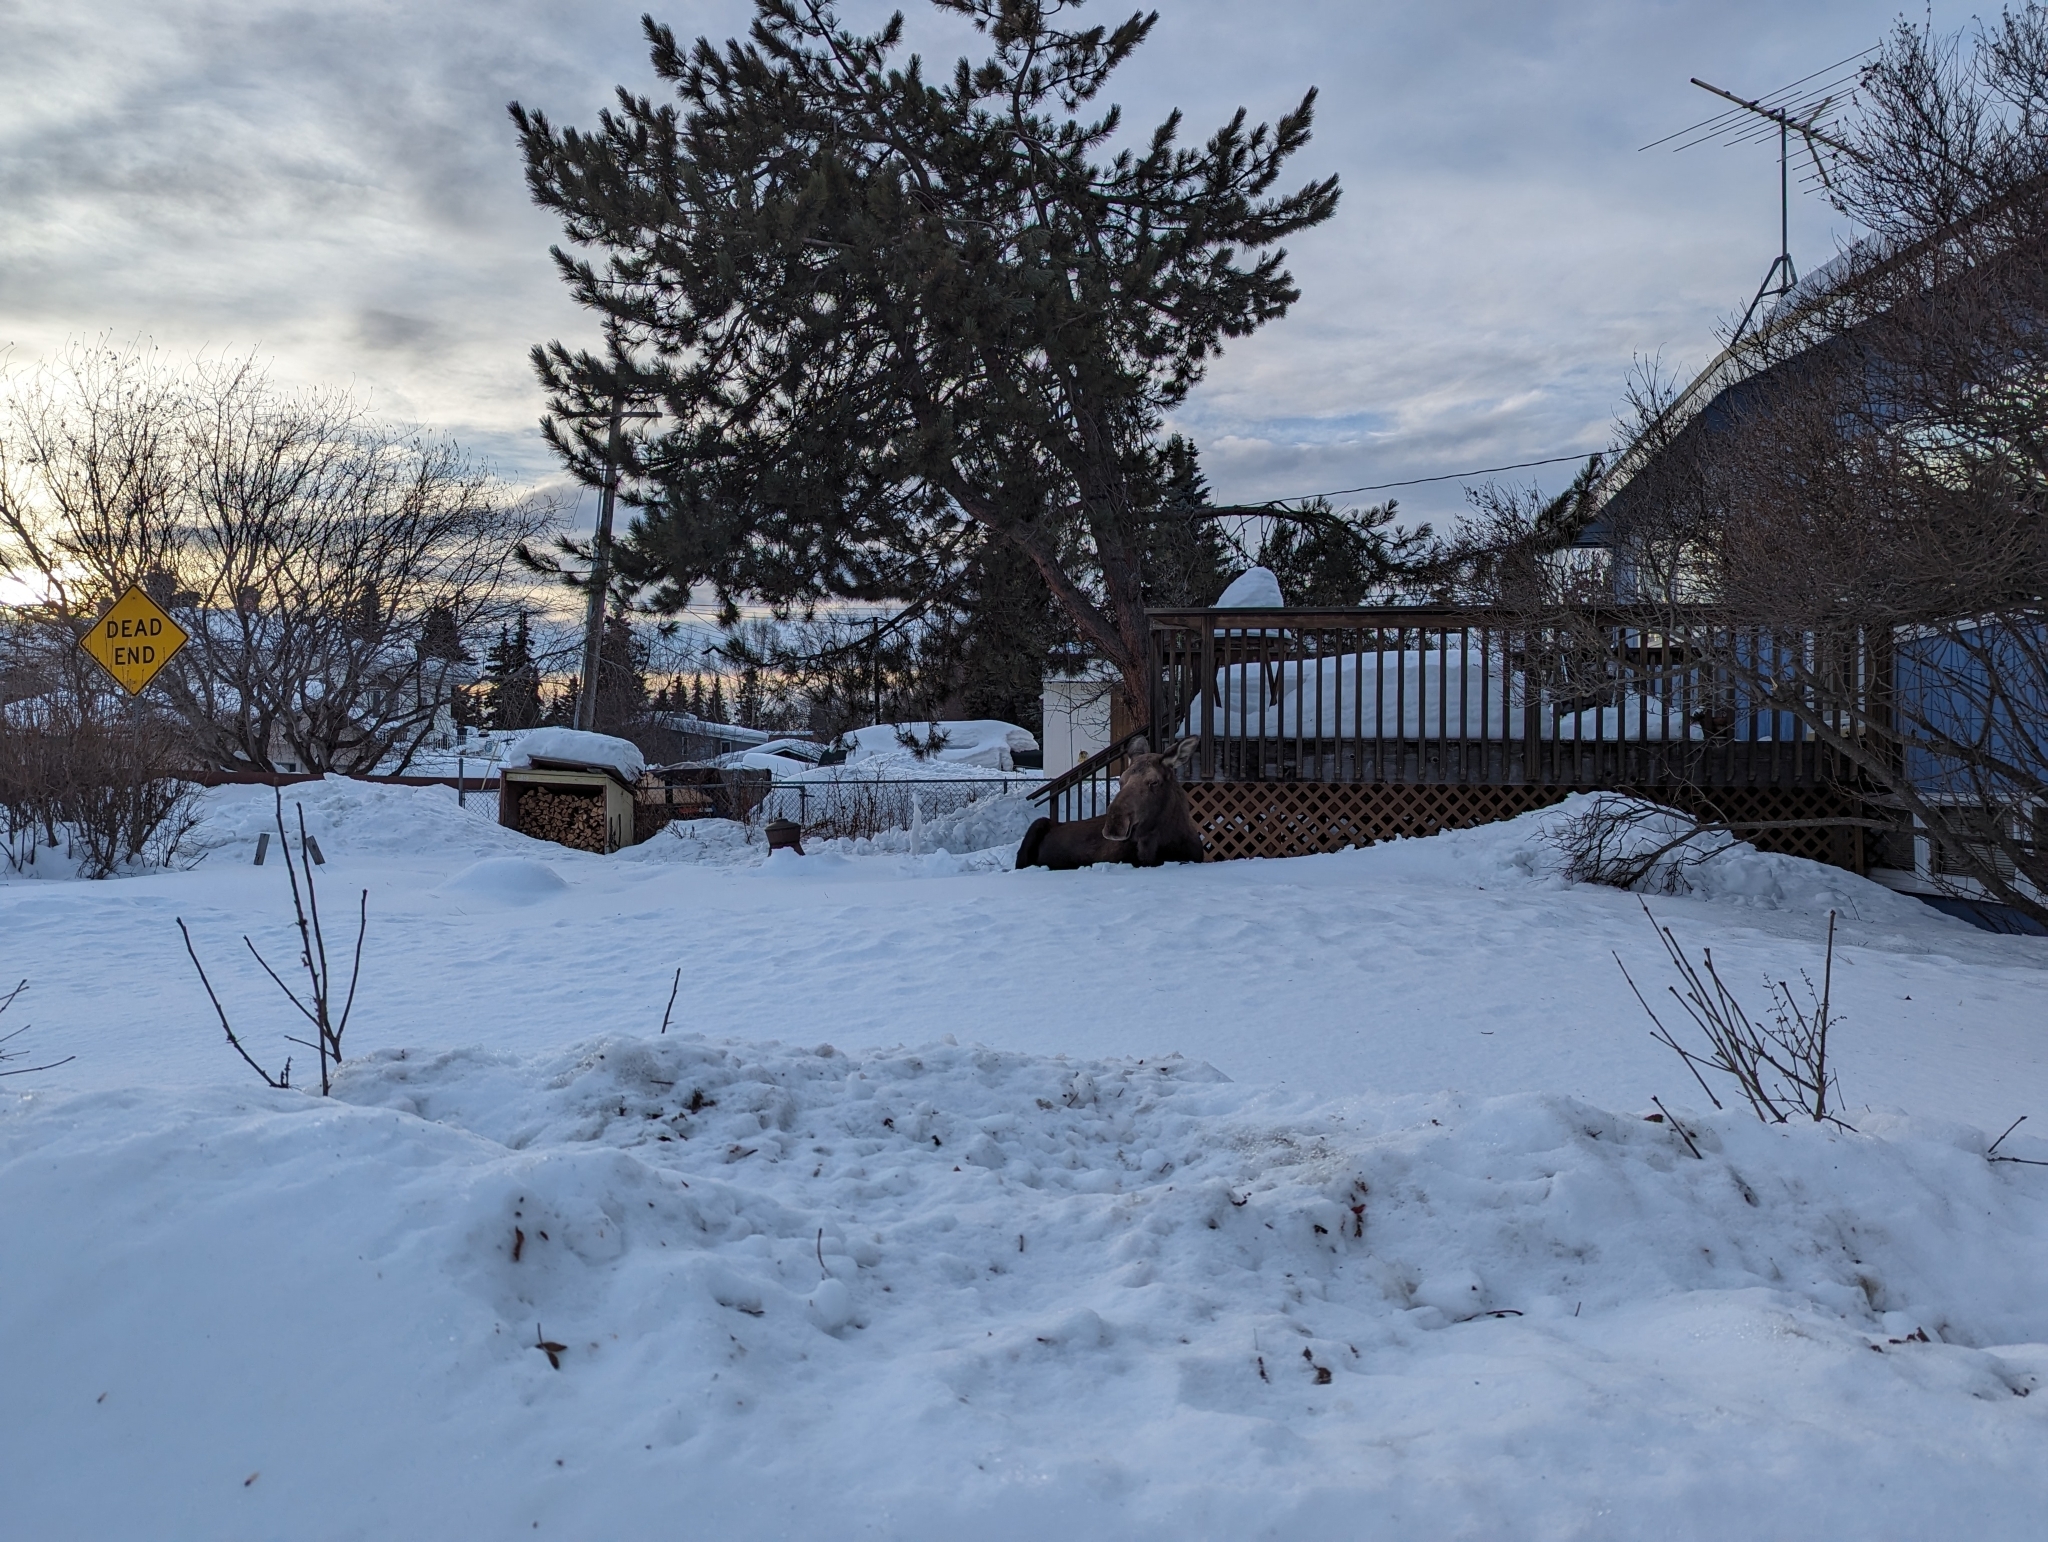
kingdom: Animalia
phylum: Chordata
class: Mammalia
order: Artiodactyla
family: Cervidae
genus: Alces
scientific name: Alces alces
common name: Moose
